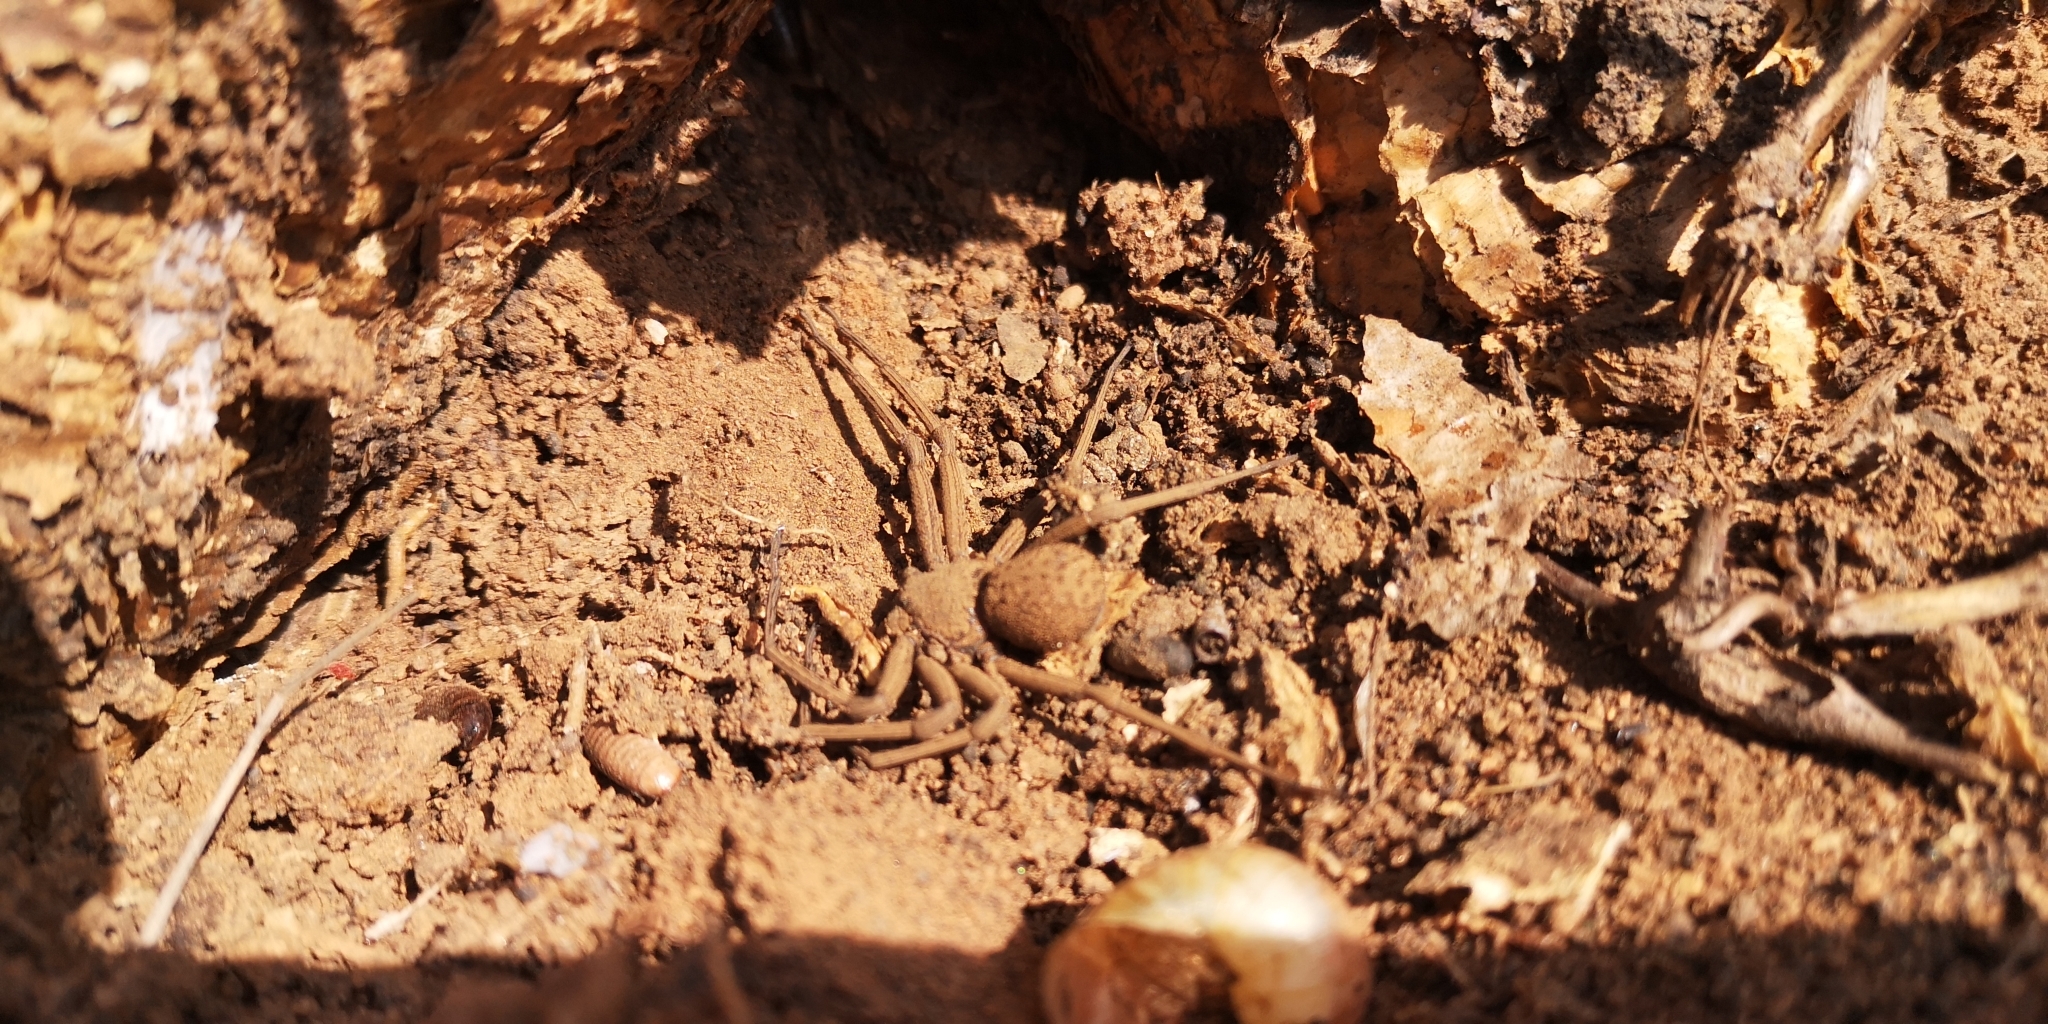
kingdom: Animalia
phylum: Arthropoda
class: Arachnida
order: Araneae
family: Sicariidae
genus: Sicarius
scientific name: Sicarius thomisoides
